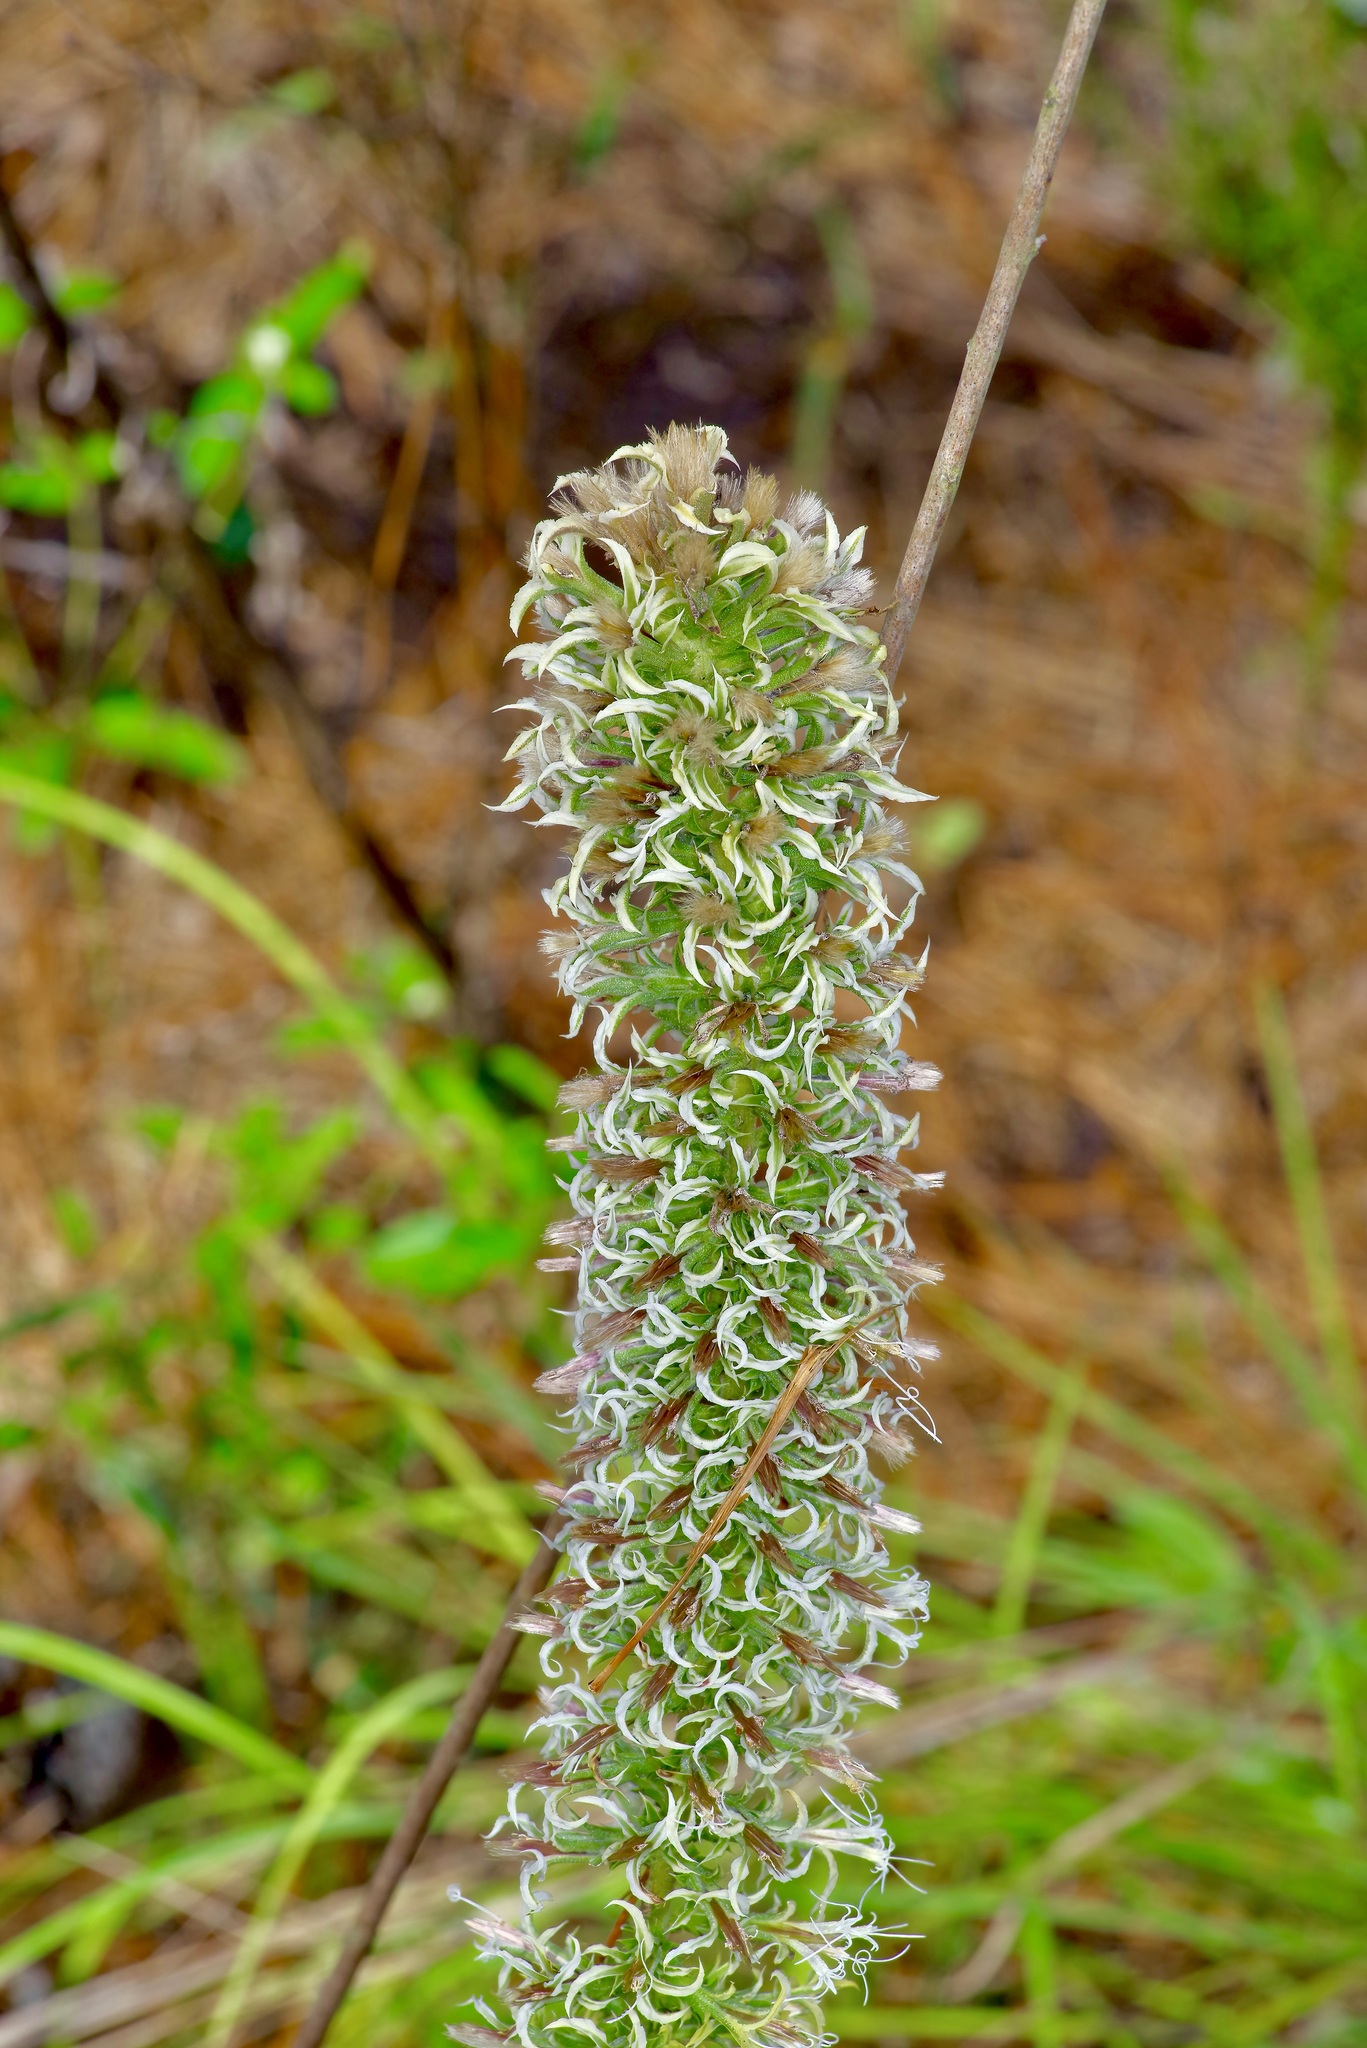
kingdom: Plantae
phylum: Tracheophyta
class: Magnoliopsida
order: Asterales
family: Asteraceae
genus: Liatris
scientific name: Liatris bridgesii
